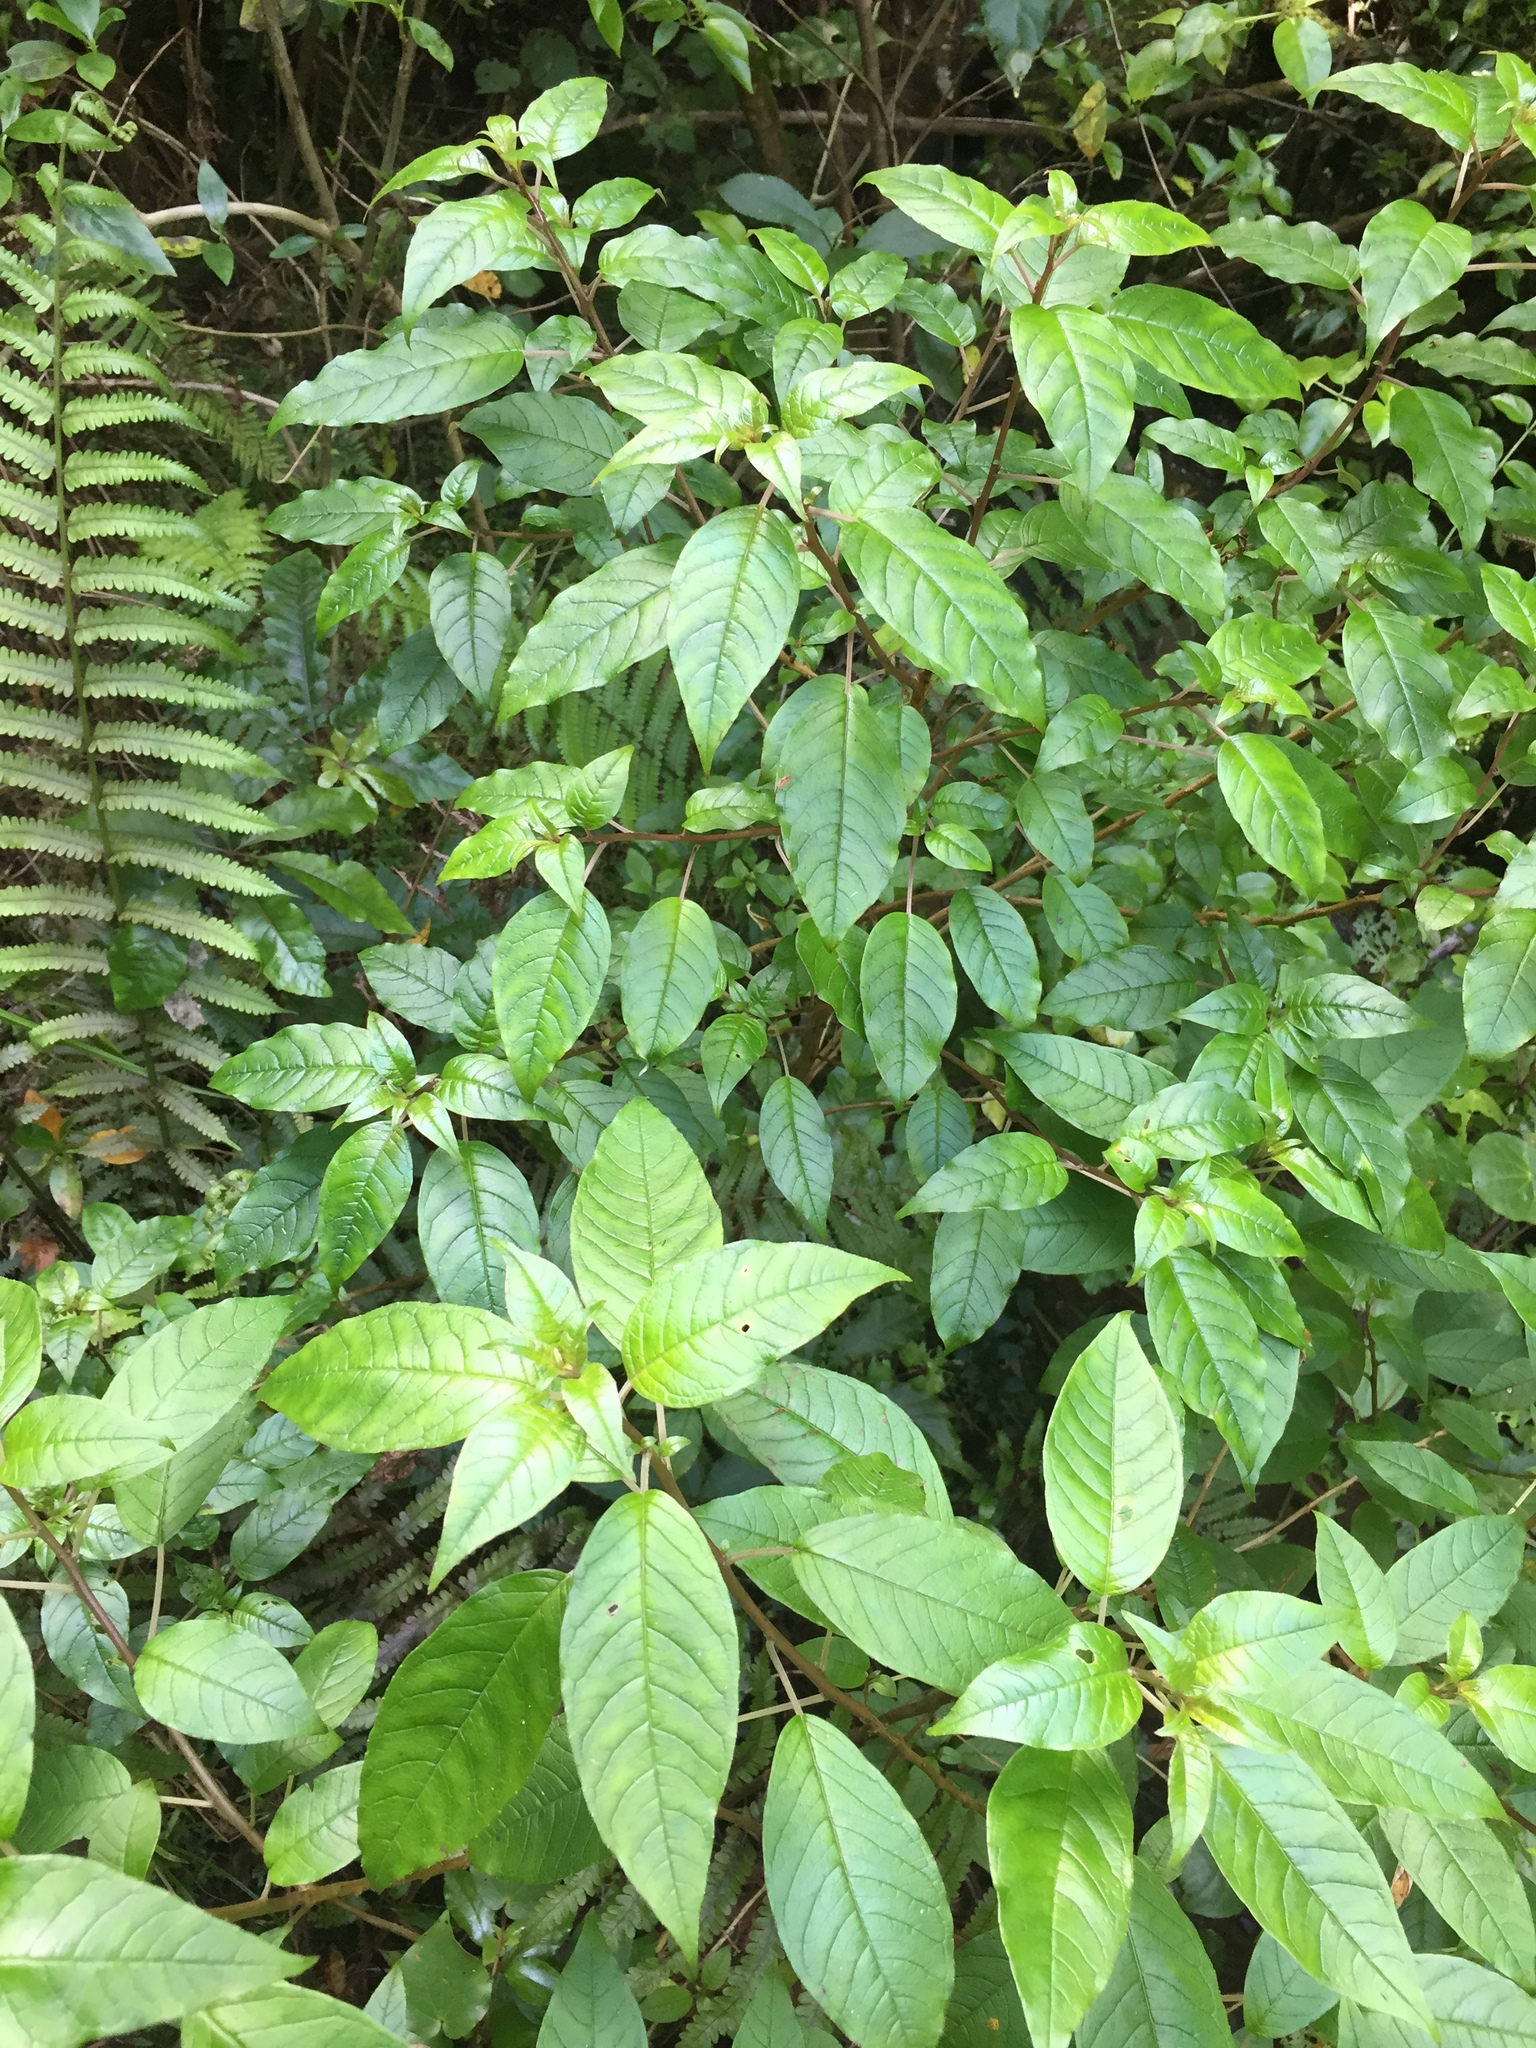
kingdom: Plantae
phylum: Tracheophyta
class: Magnoliopsida
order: Myrtales
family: Onagraceae
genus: Fuchsia
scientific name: Fuchsia excorticata
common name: Tree fuchsia
